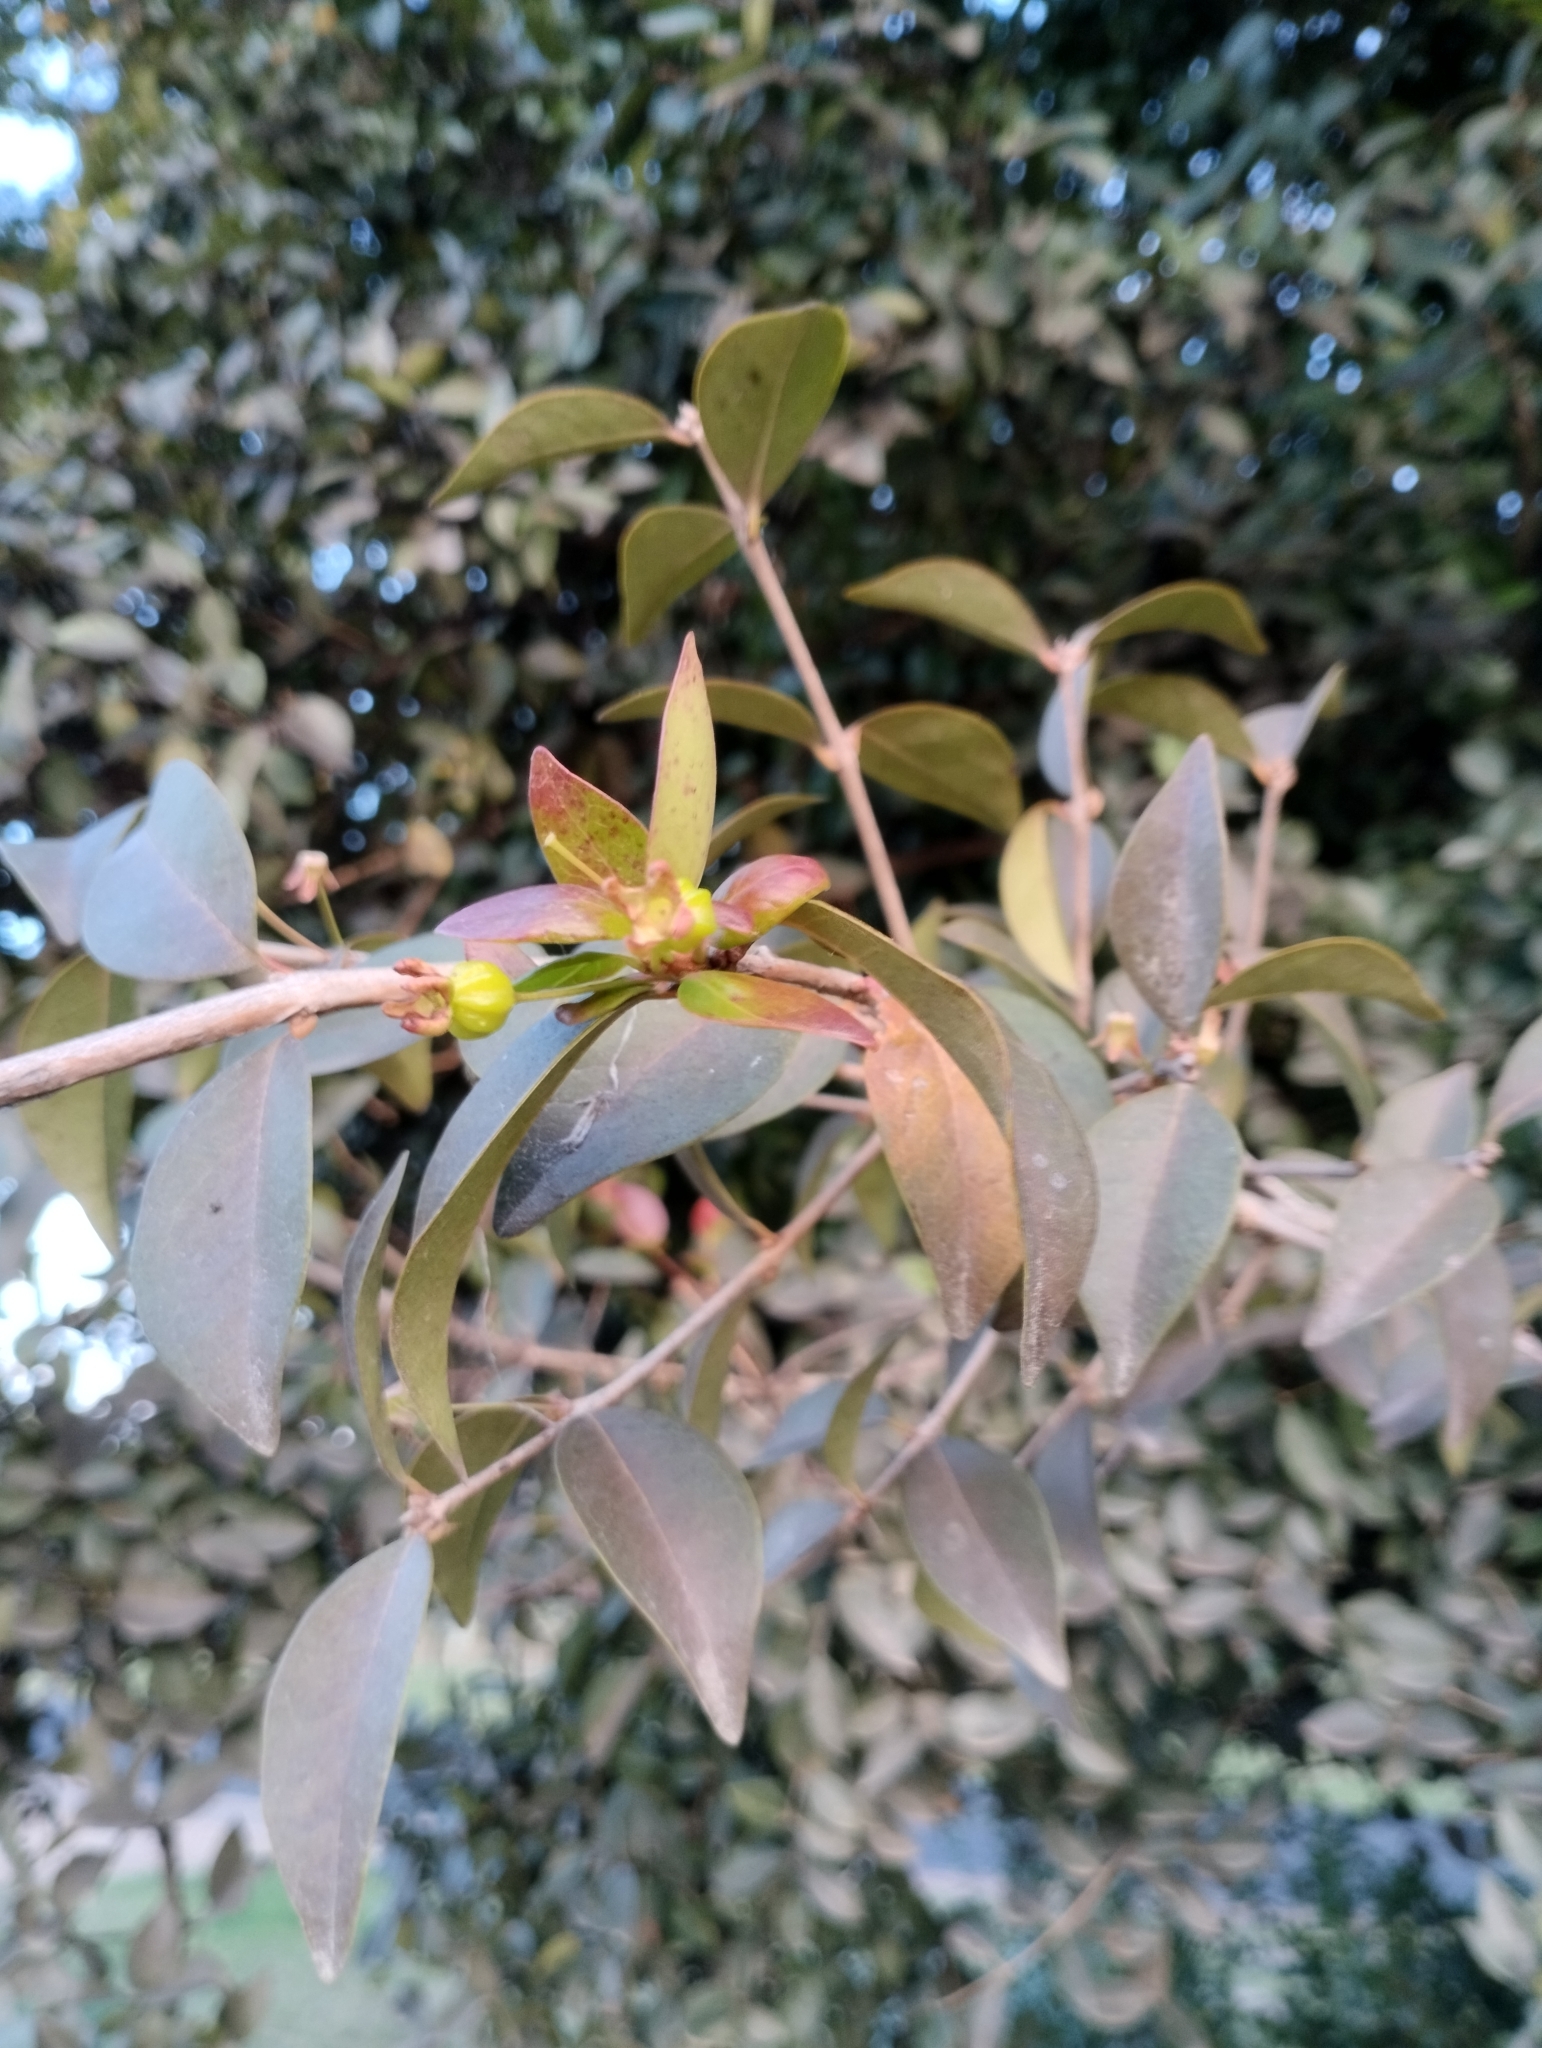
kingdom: Plantae
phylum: Tracheophyta
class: Magnoliopsida
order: Myrtales
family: Myrtaceae
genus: Eugenia
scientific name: Eugenia uniflora
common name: Surinam cherry
